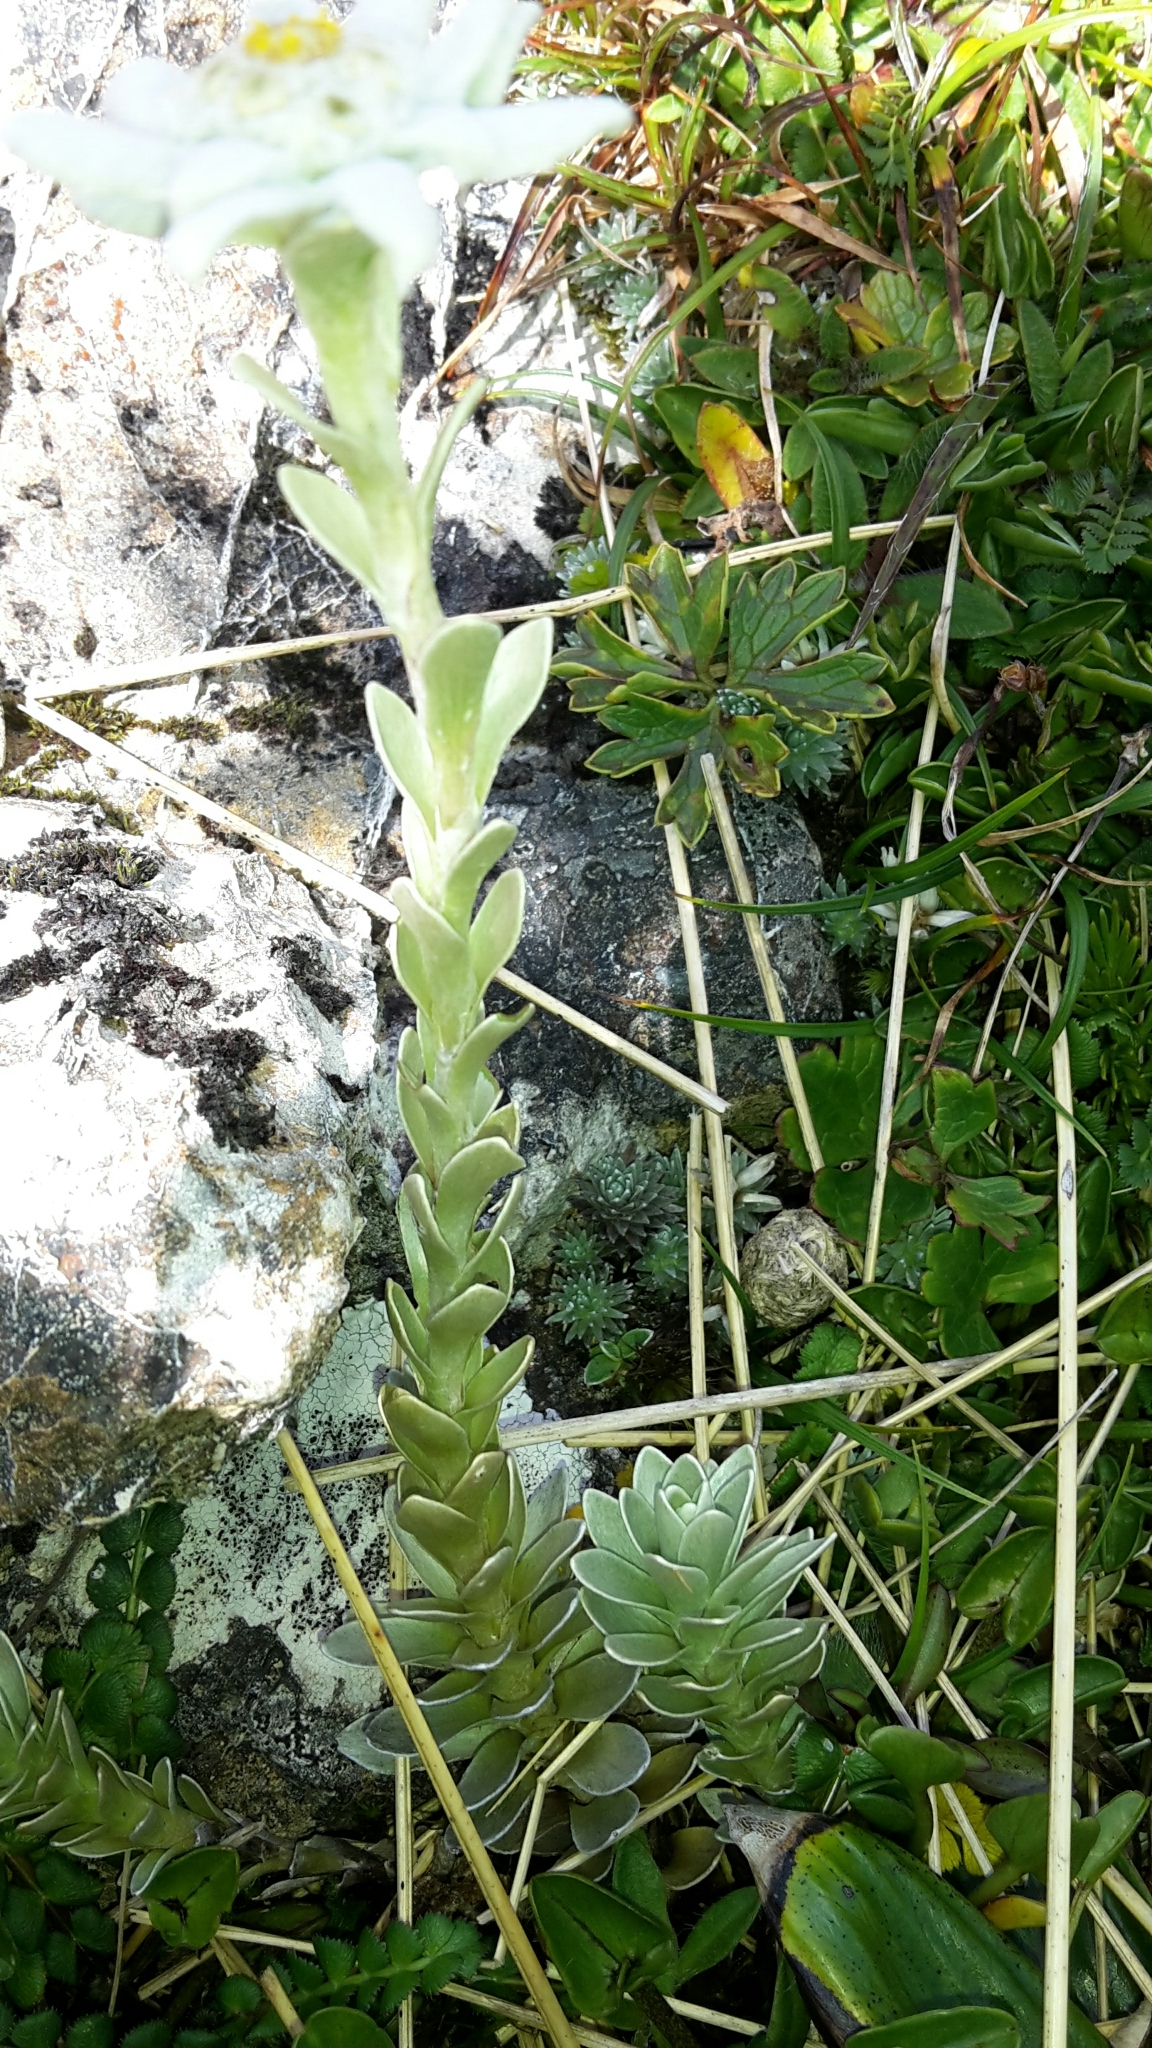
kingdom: Plantae
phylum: Tracheophyta
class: Magnoliopsida
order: Asterales
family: Asteraceae
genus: Leucogenes
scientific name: Leucogenes leontopodium
